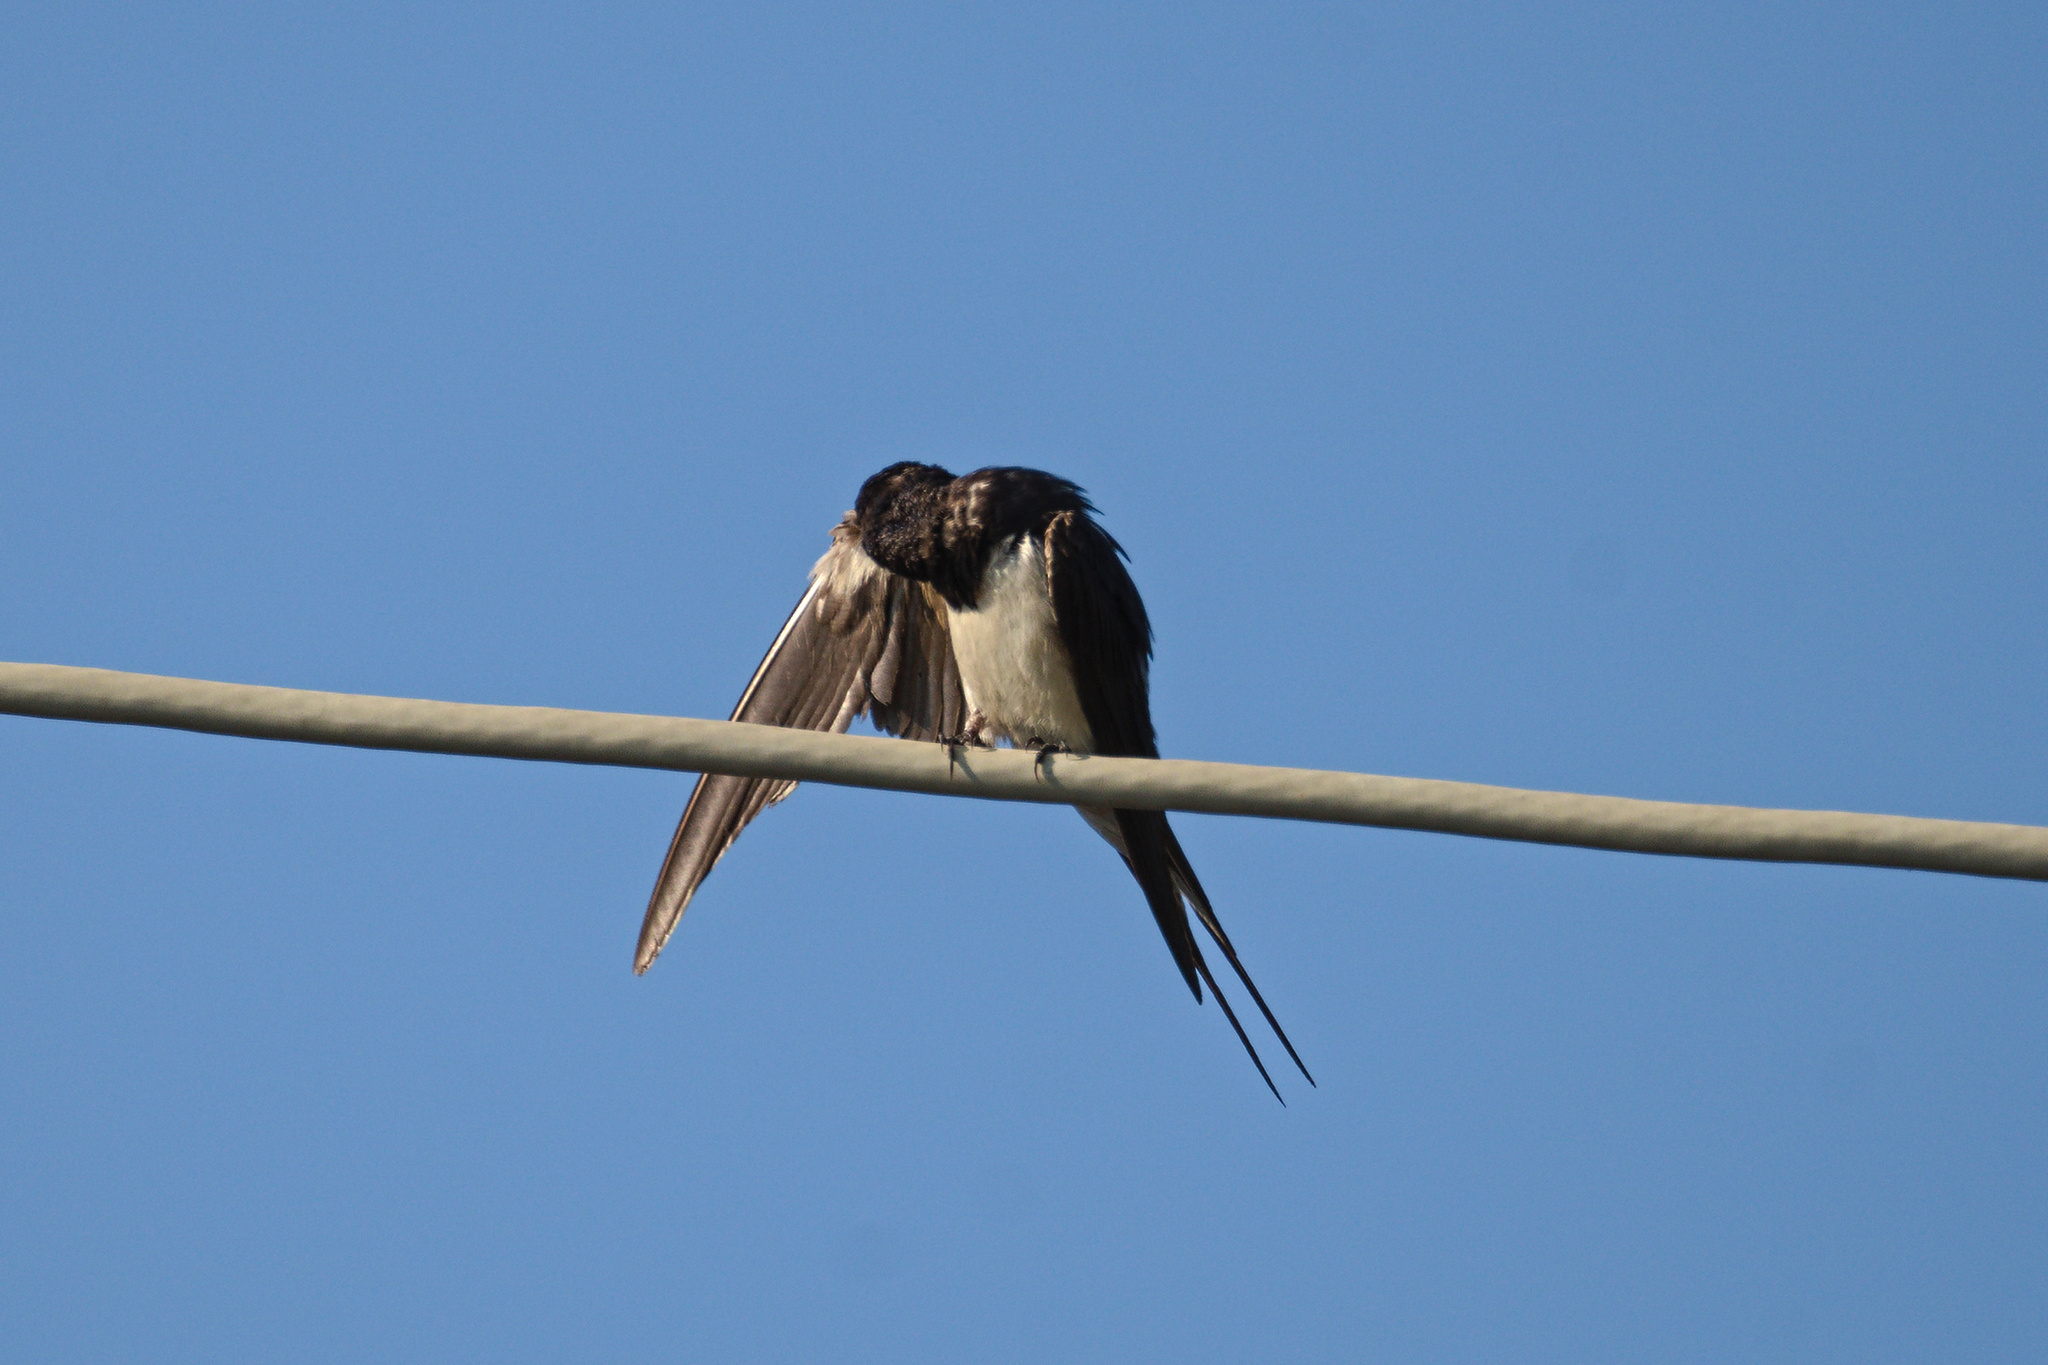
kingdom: Animalia
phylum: Chordata
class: Aves
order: Passeriformes
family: Hirundinidae
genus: Hirundo
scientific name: Hirundo rustica
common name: Barn swallow
